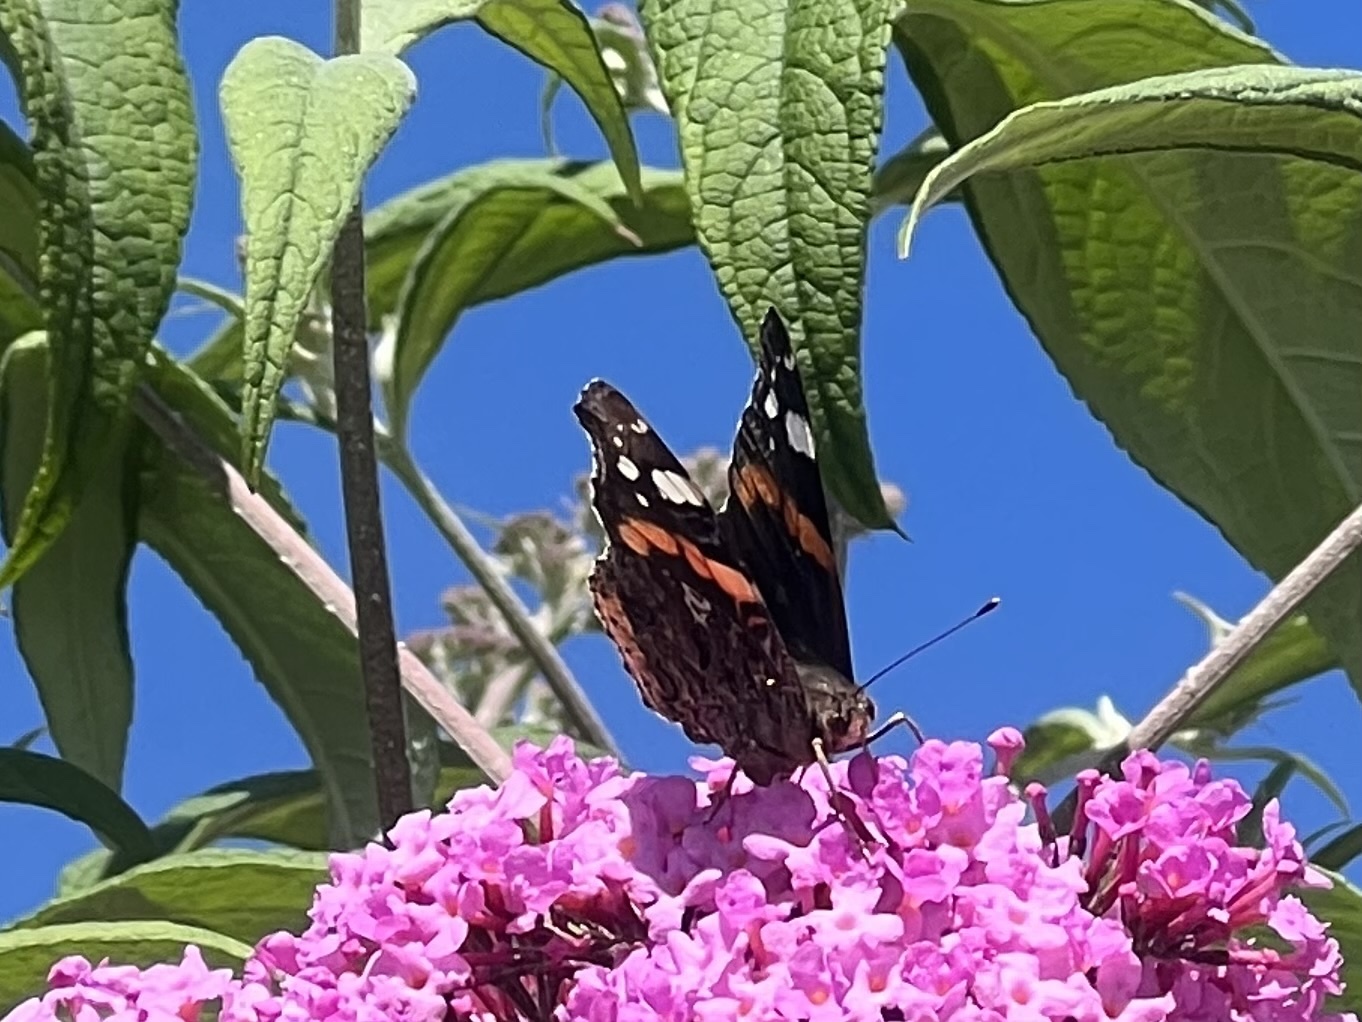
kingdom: Animalia
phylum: Arthropoda
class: Insecta
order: Lepidoptera
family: Nymphalidae
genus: Vanessa
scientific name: Vanessa atalanta
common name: Red admiral
